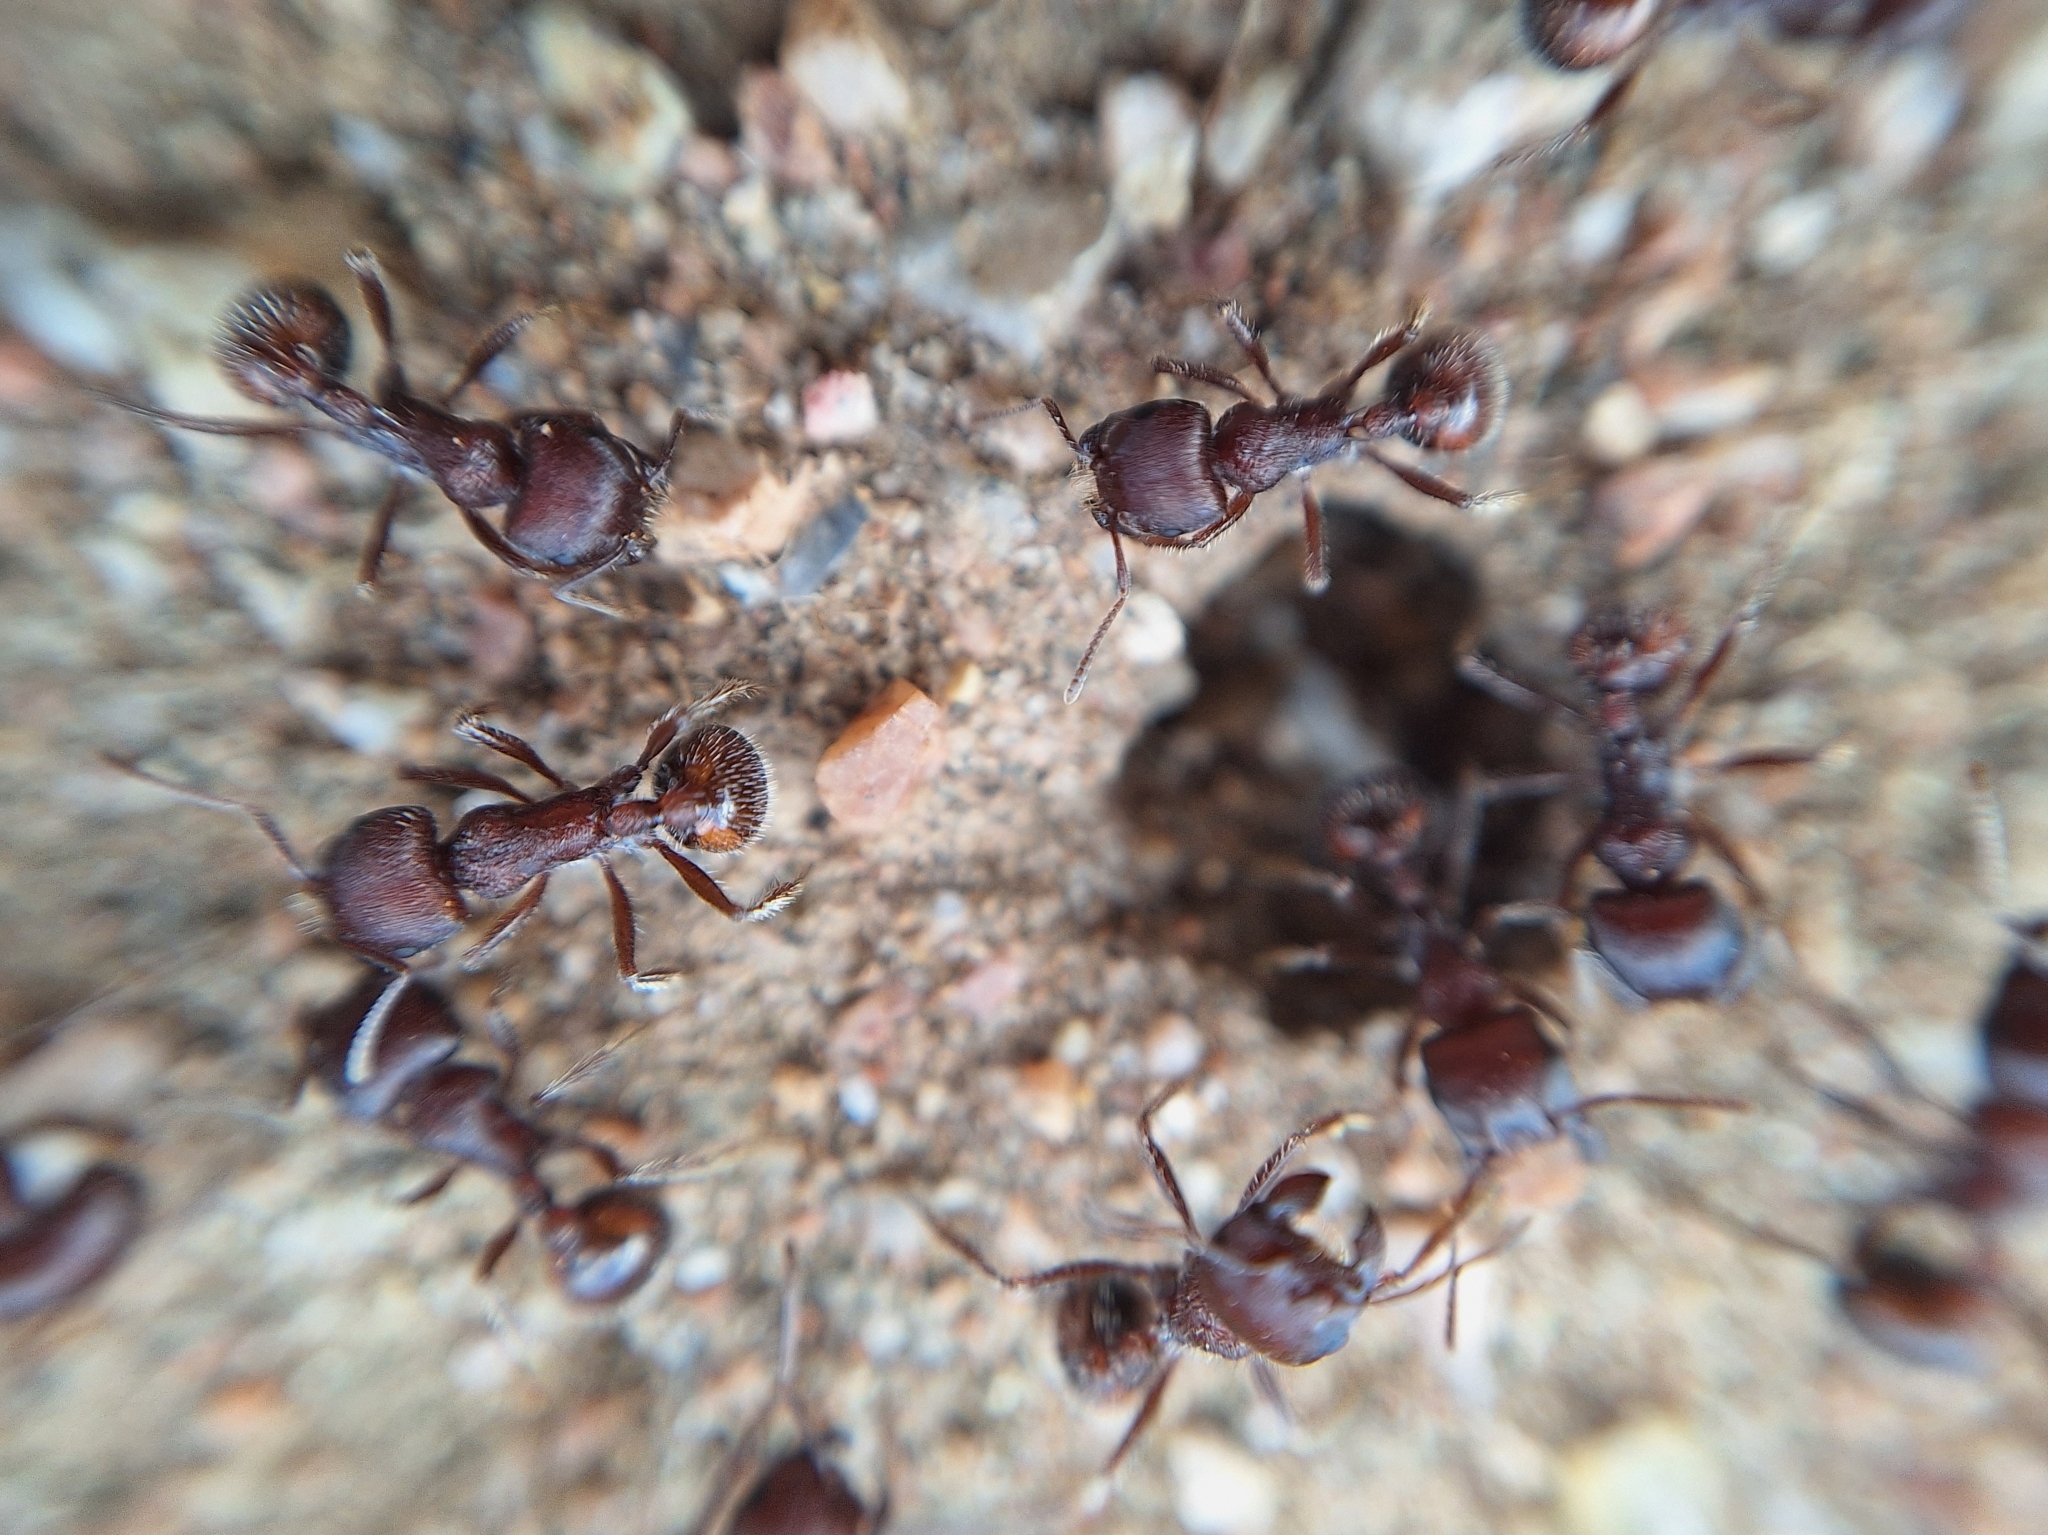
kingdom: Animalia
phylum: Arthropoda
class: Insecta
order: Hymenoptera
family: Formicidae
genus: Pogonomyrmex
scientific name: Pogonomyrmex rugosus
